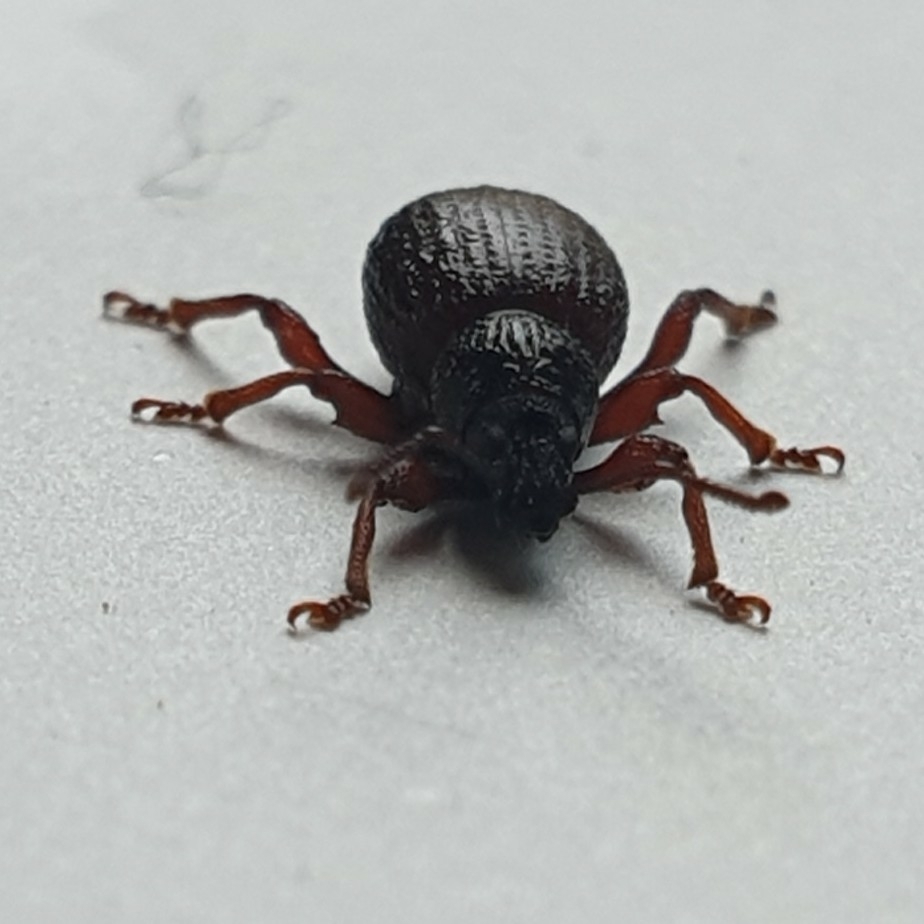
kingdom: Animalia
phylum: Arthropoda
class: Insecta
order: Coleoptera
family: Curculionidae
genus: Otiorhynchus
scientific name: Otiorhynchus ovatus
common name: Strawberry root weevil
